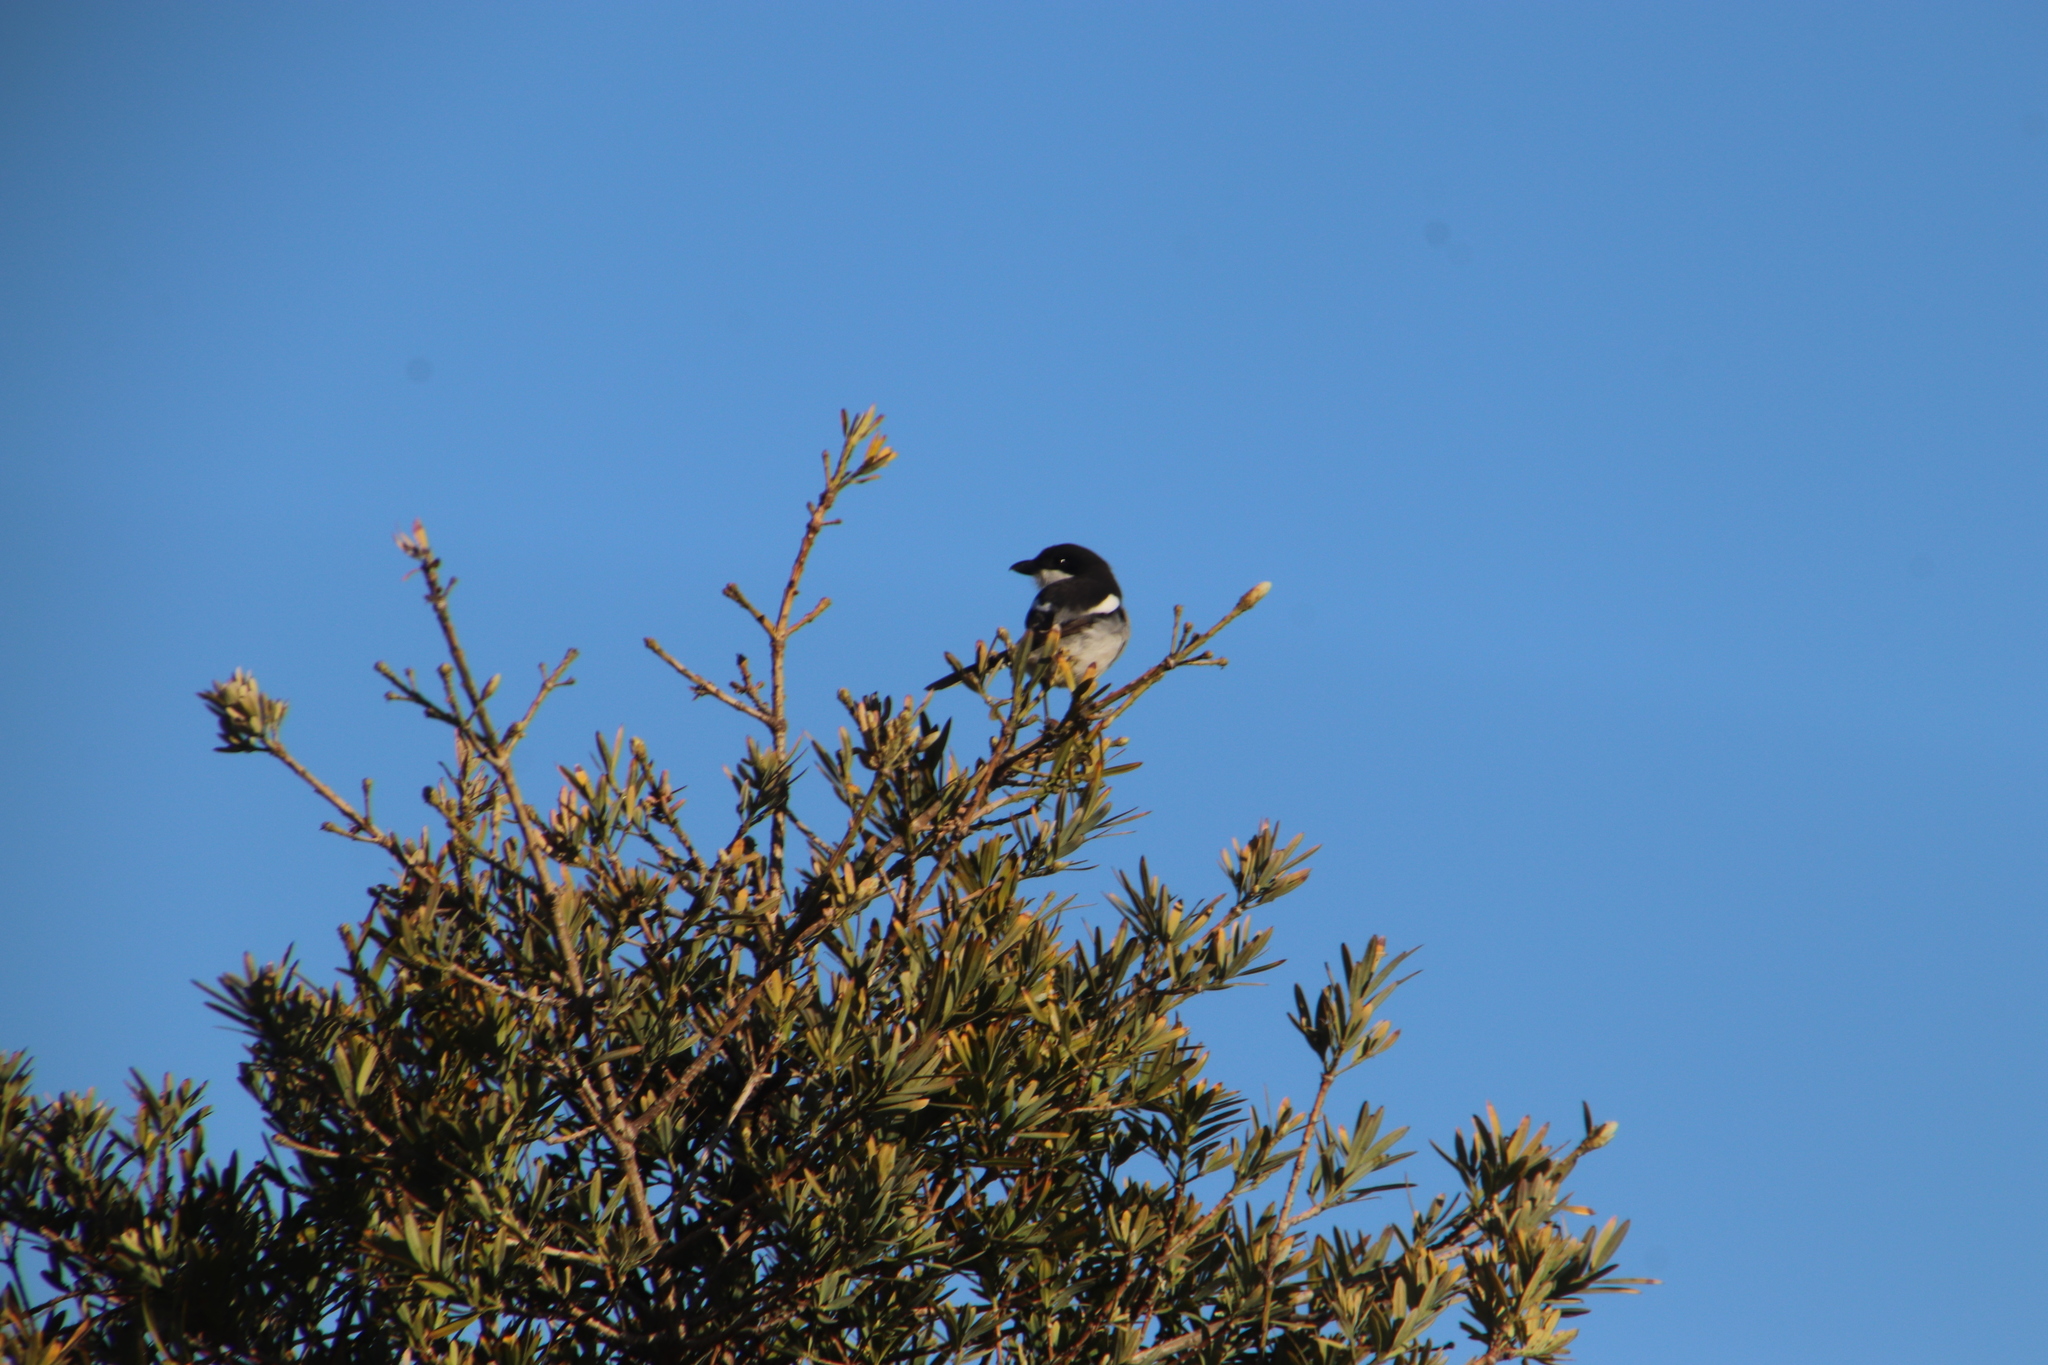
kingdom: Animalia
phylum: Chordata
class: Aves
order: Passeriformes
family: Laniidae
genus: Lanius
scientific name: Lanius collaris
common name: Southern fiscal
